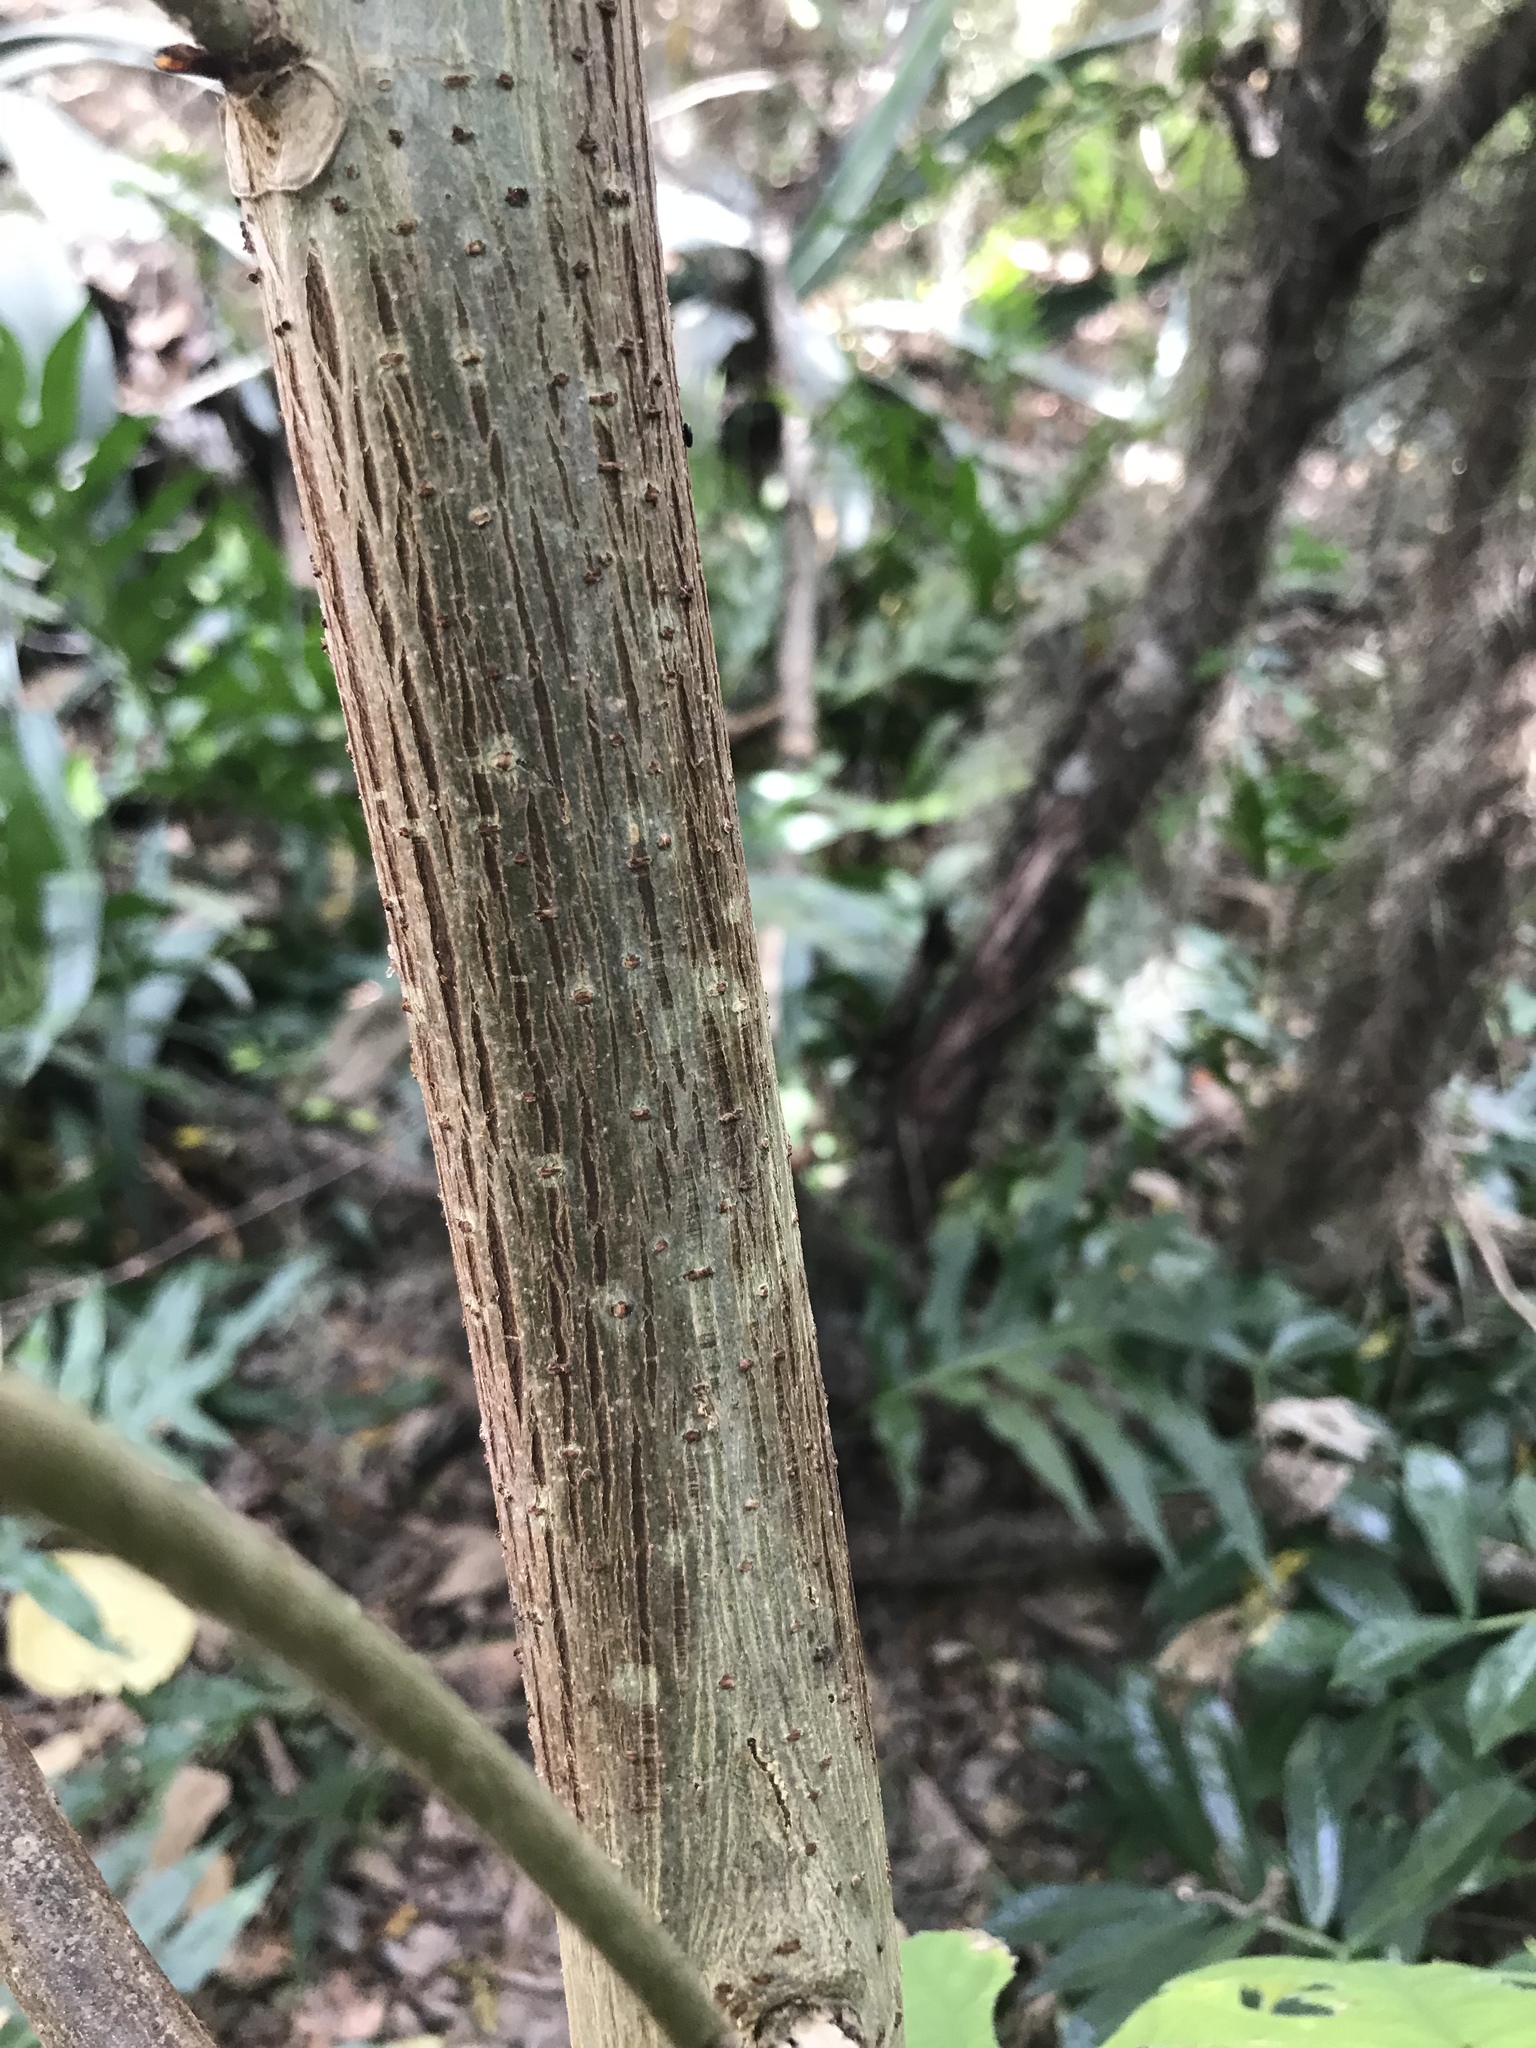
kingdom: Plantae
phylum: Tracheophyta
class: Magnoliopsida
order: Rosales
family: Moraceae
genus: Broussonetia
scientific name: Broussonetia papyrifera
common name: Paper mulberry
